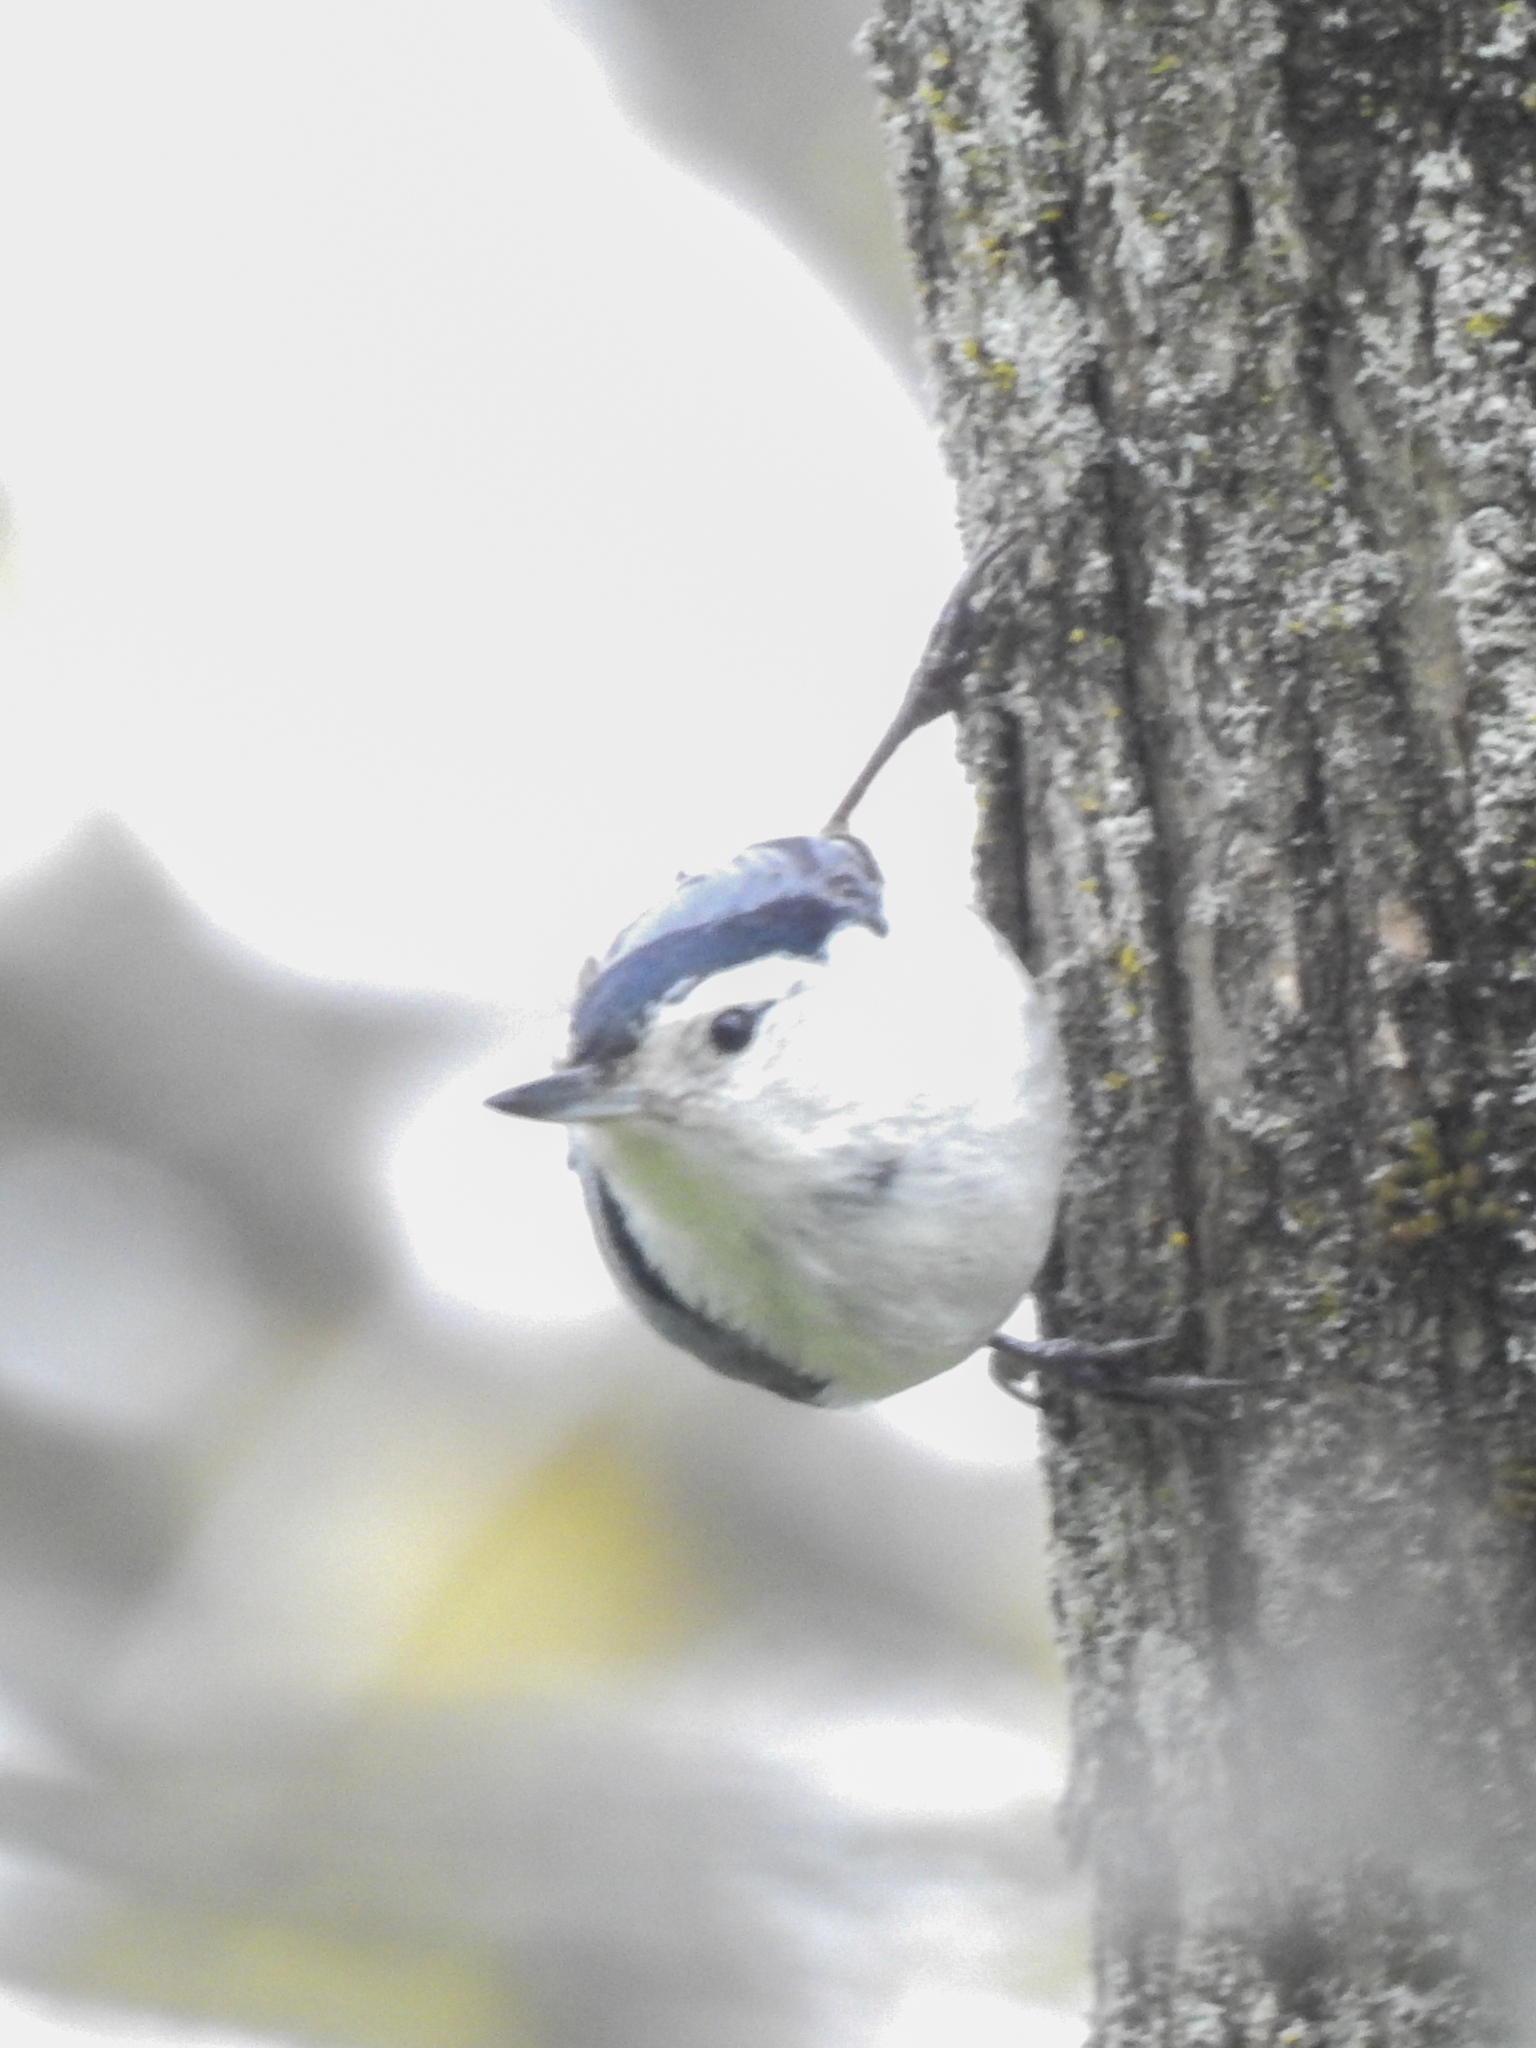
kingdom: Animalia
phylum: Chordata
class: Aves
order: Passeriformes
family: Sittidae
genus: Sitta
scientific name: Sitta carolinensis
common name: White-breasted nuthatch
